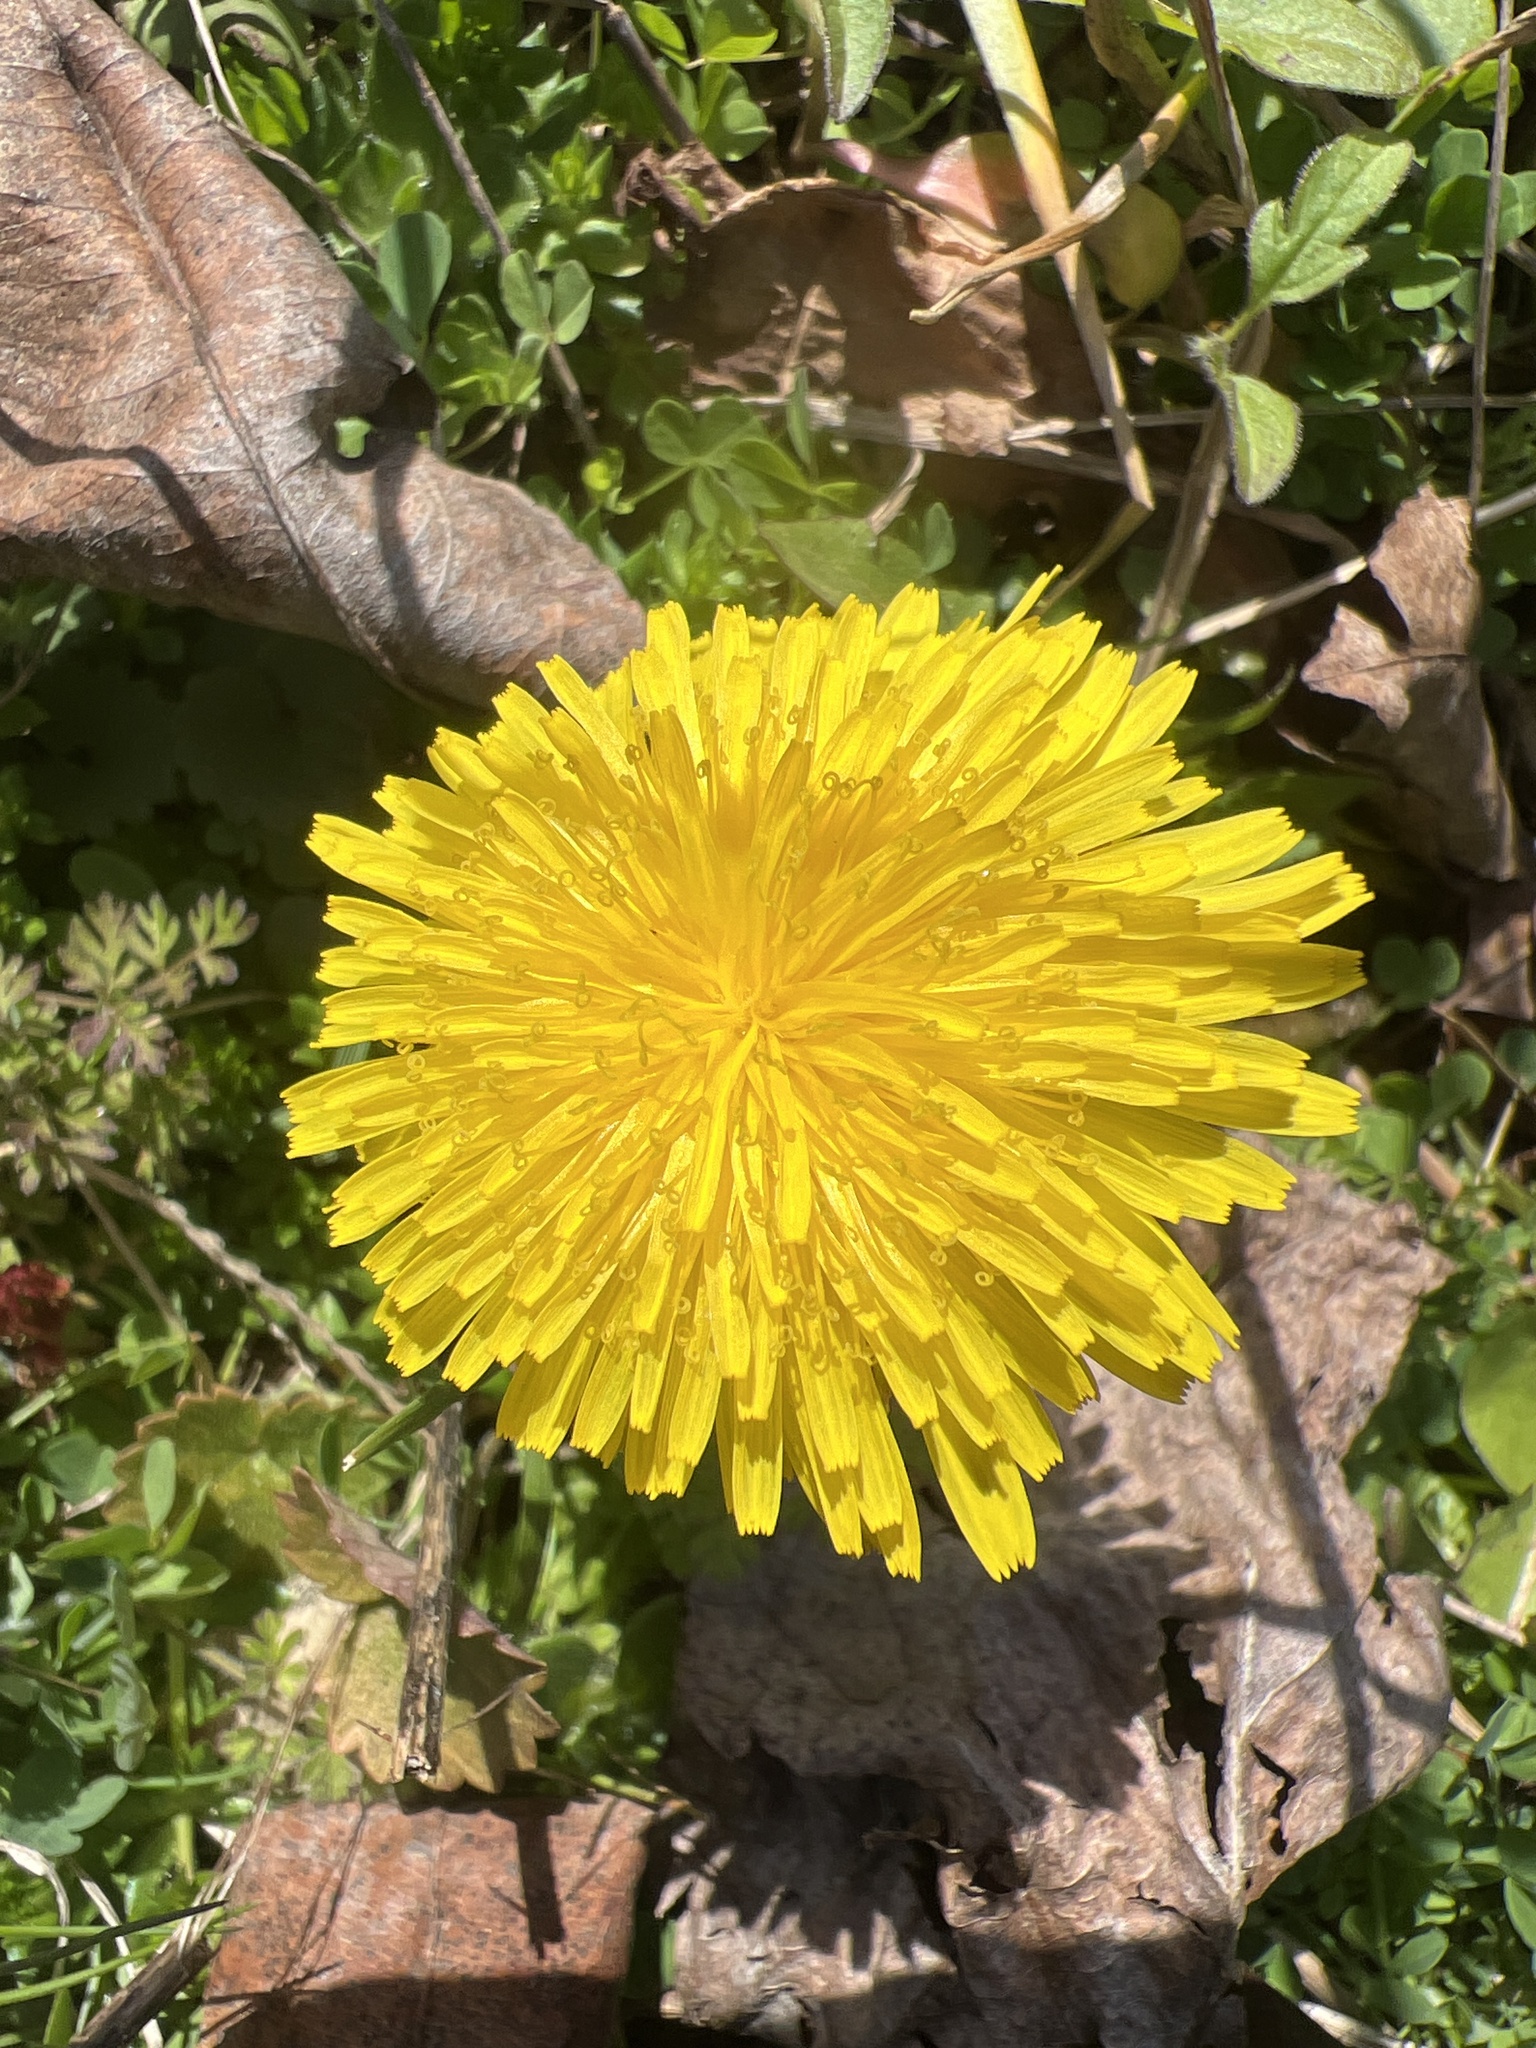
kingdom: Plantae
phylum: Tracheophyta
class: Magnoliopsida
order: Asterales
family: Asteraceae
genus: Taraxacum
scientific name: Taraxacum
